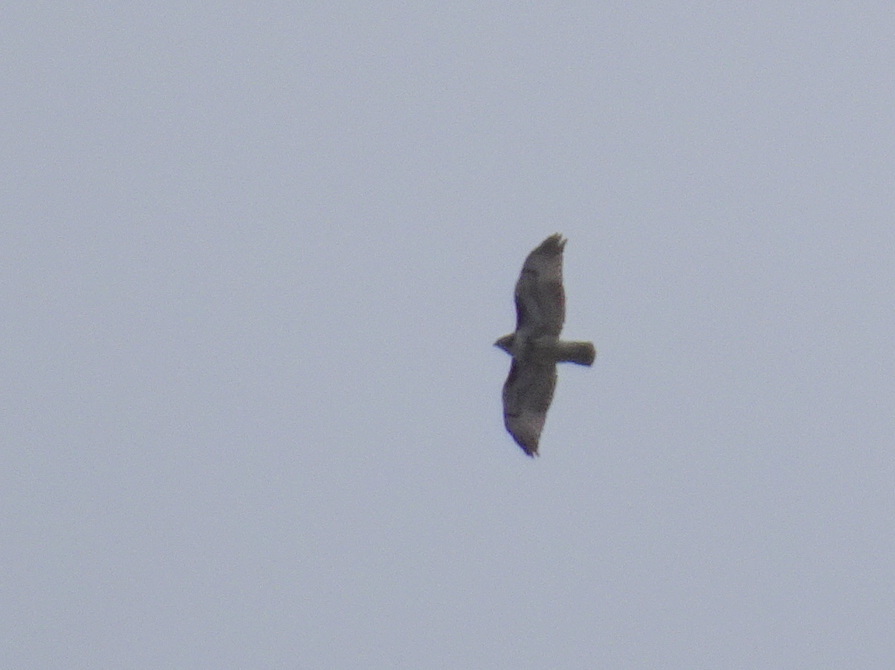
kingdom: Animalia
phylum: Chordata
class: Aves
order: Accipitriformes
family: Accipitridae
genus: Buteo
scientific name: Buteo jamaicensis
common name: Red-tailed hawk
